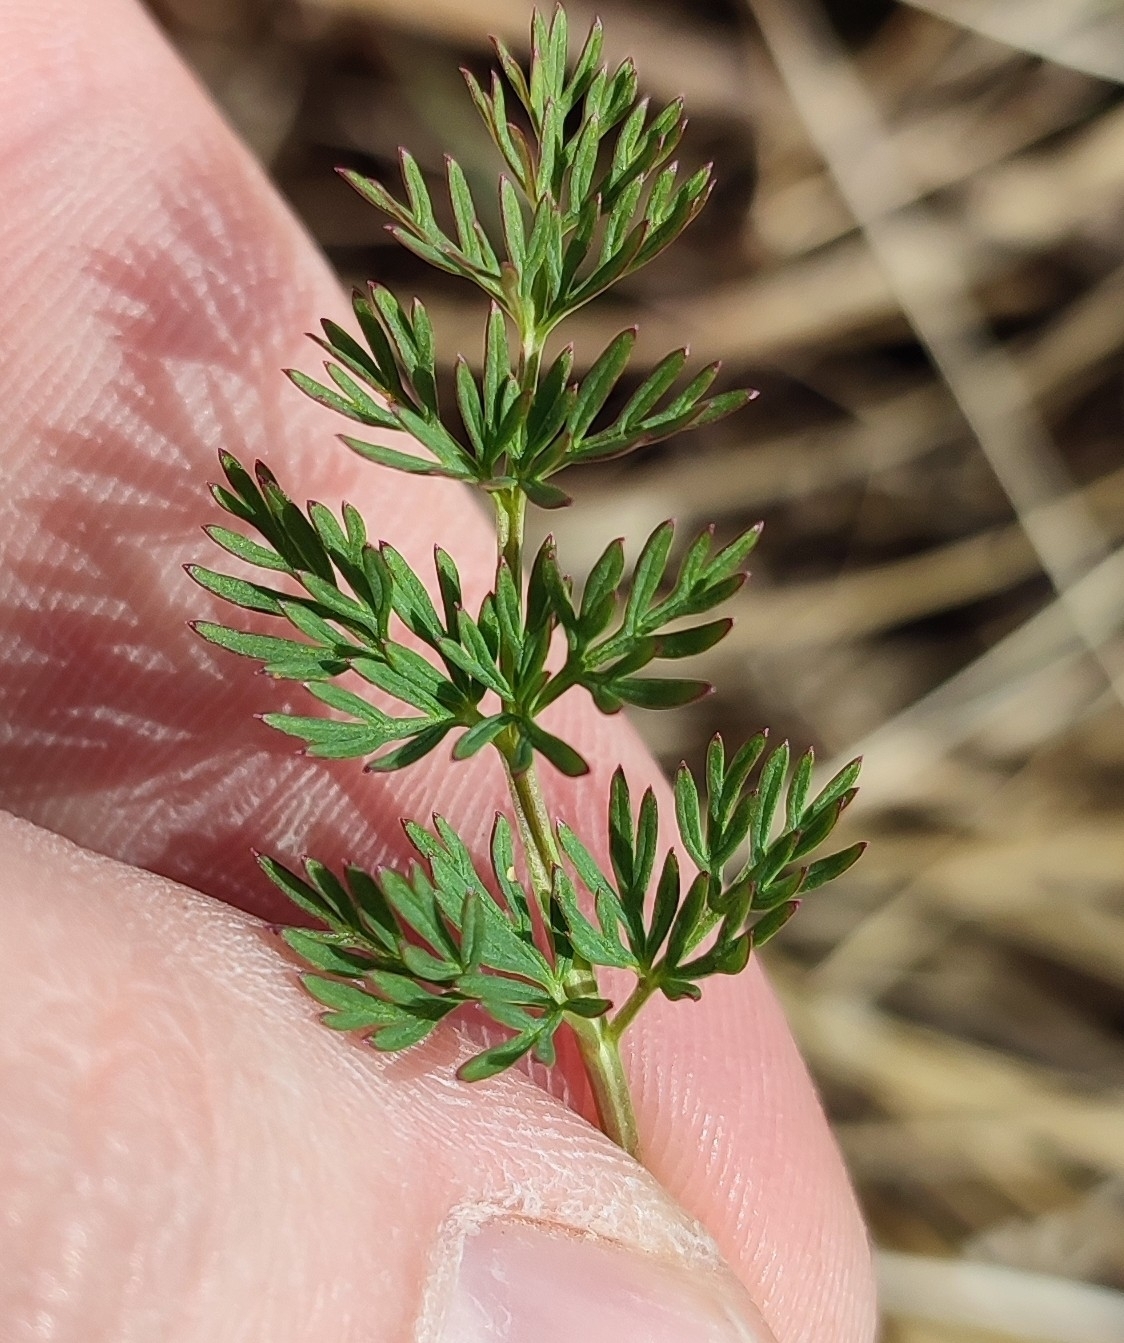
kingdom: Plantae
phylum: Tracheophyta
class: Magnoliopsida
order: Apiales
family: Apiaceae
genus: Kadenia
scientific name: Kadenia dubia
